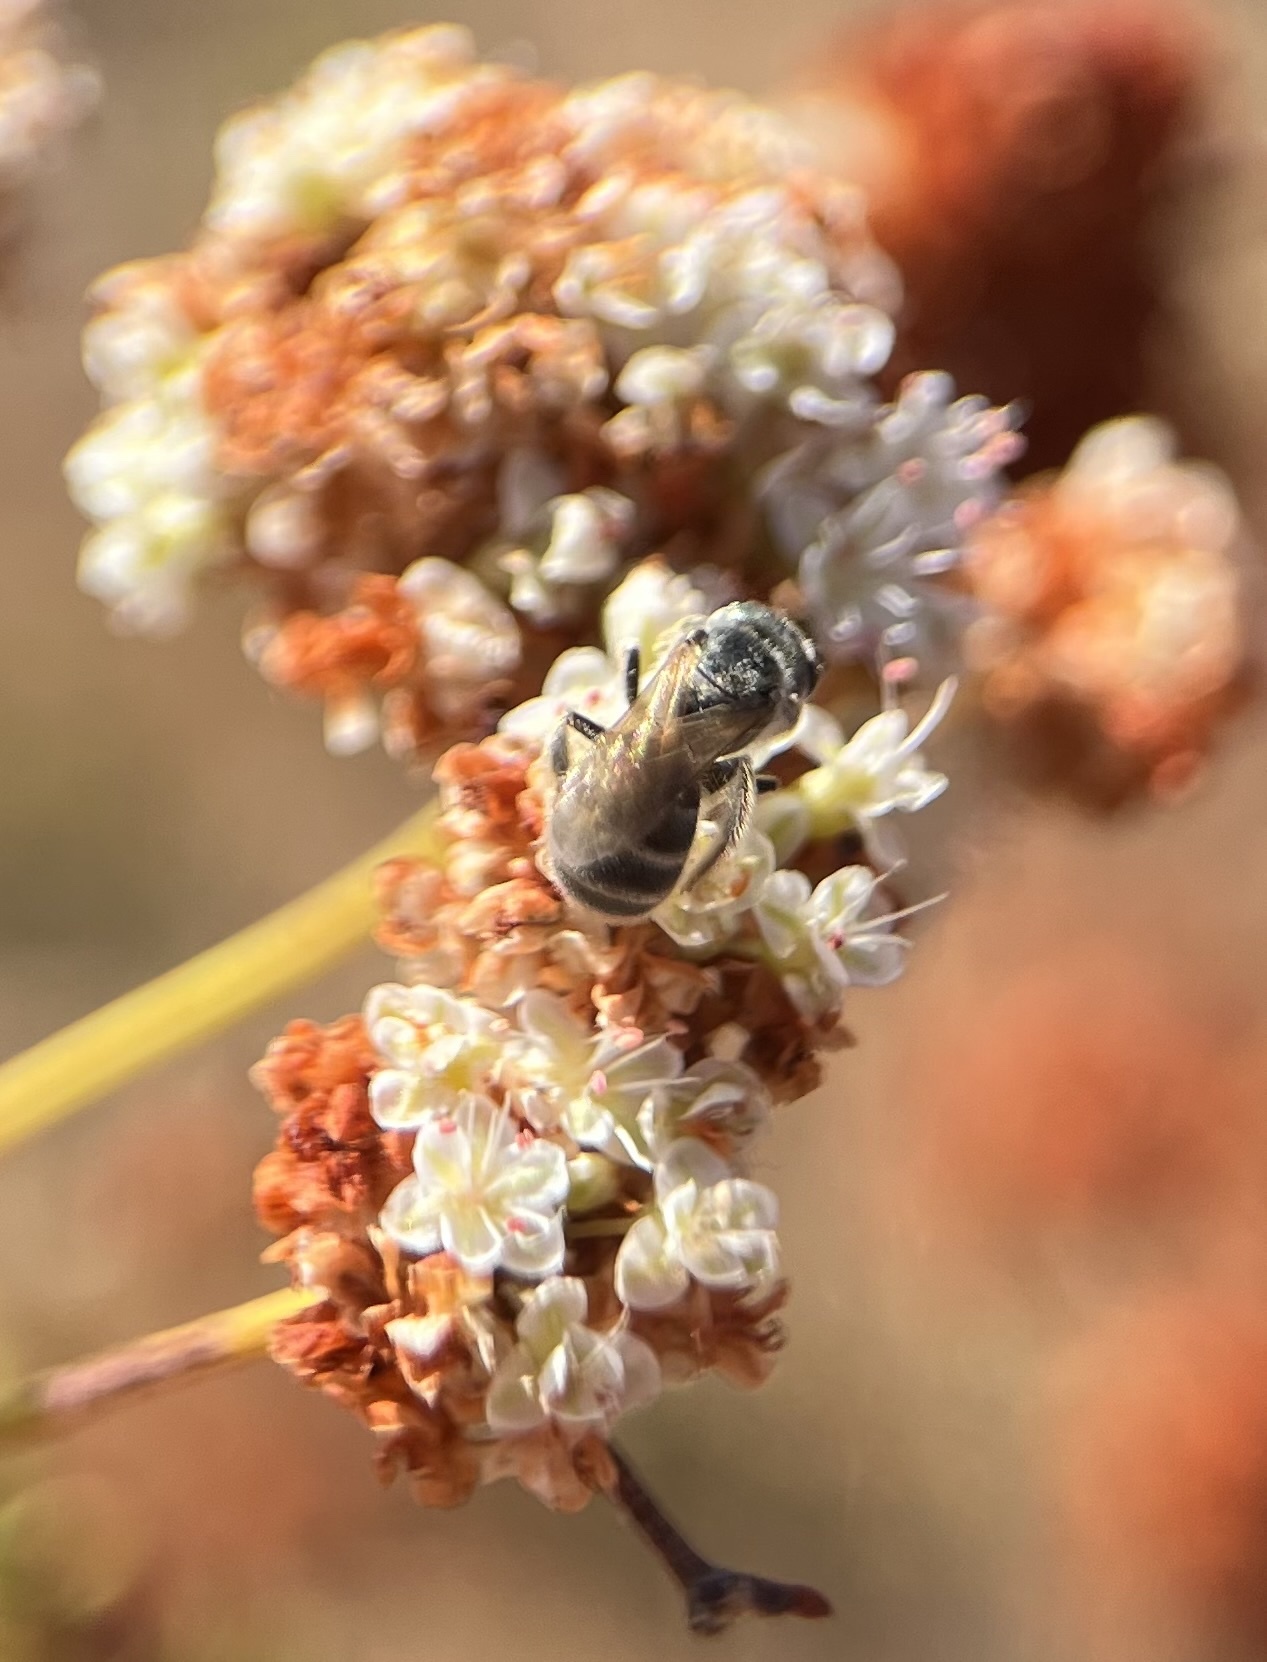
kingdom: Animalia
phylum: Arthropoda
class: Insecta
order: Hymenoptera
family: Halictidae
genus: Halictus
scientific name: Halictus tripartitus
